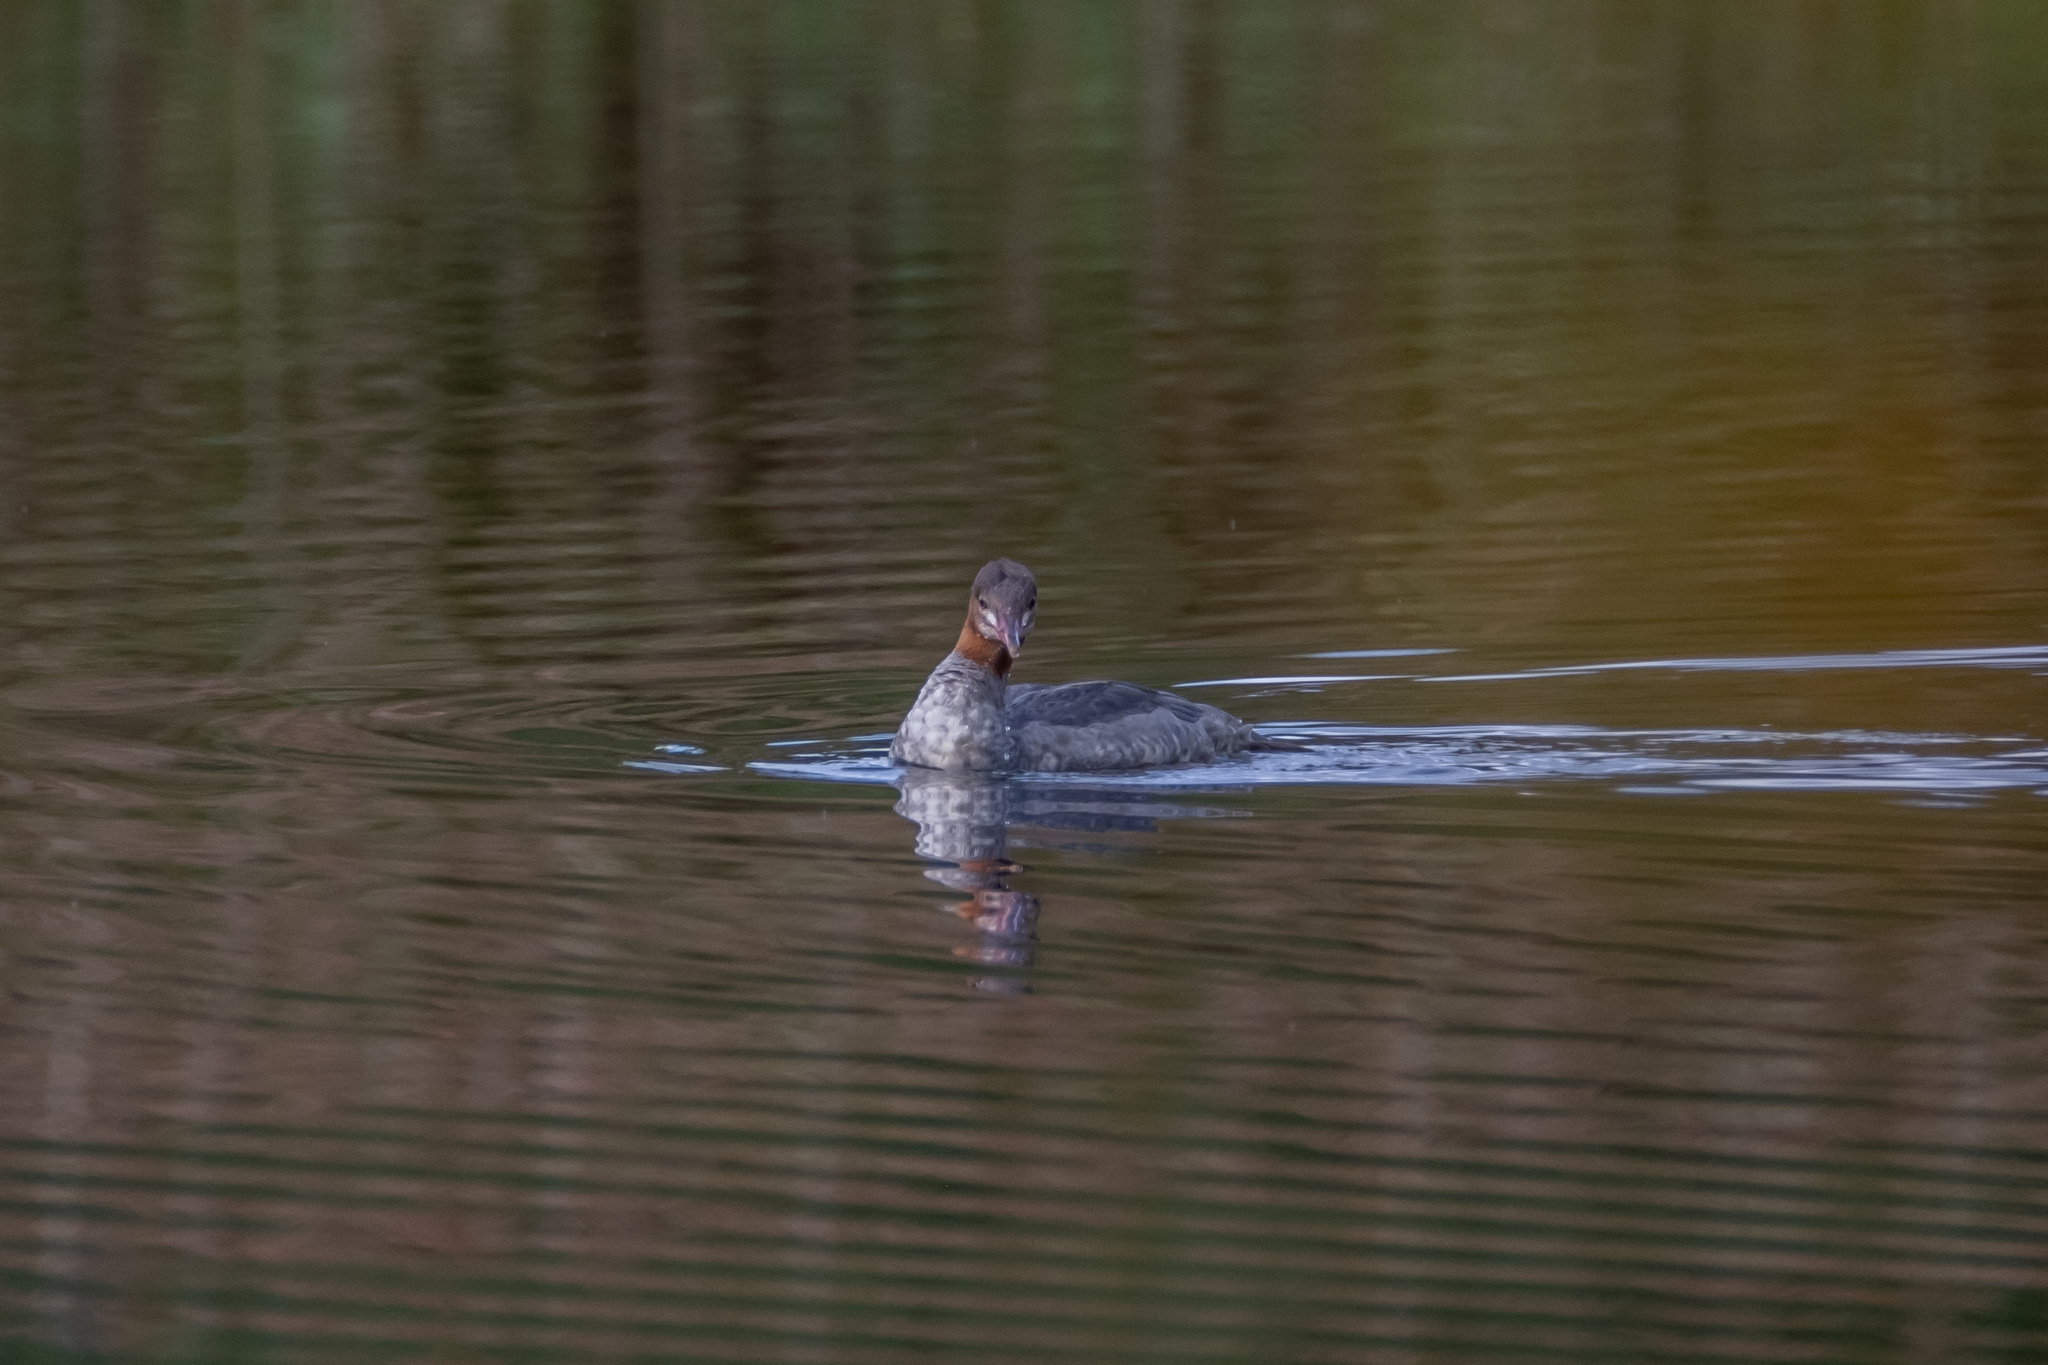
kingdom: Animalia
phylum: Chordata
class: Aves
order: Anseriformes
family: Anatidae
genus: Mergus
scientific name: Mergus merganser
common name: Common merganser
